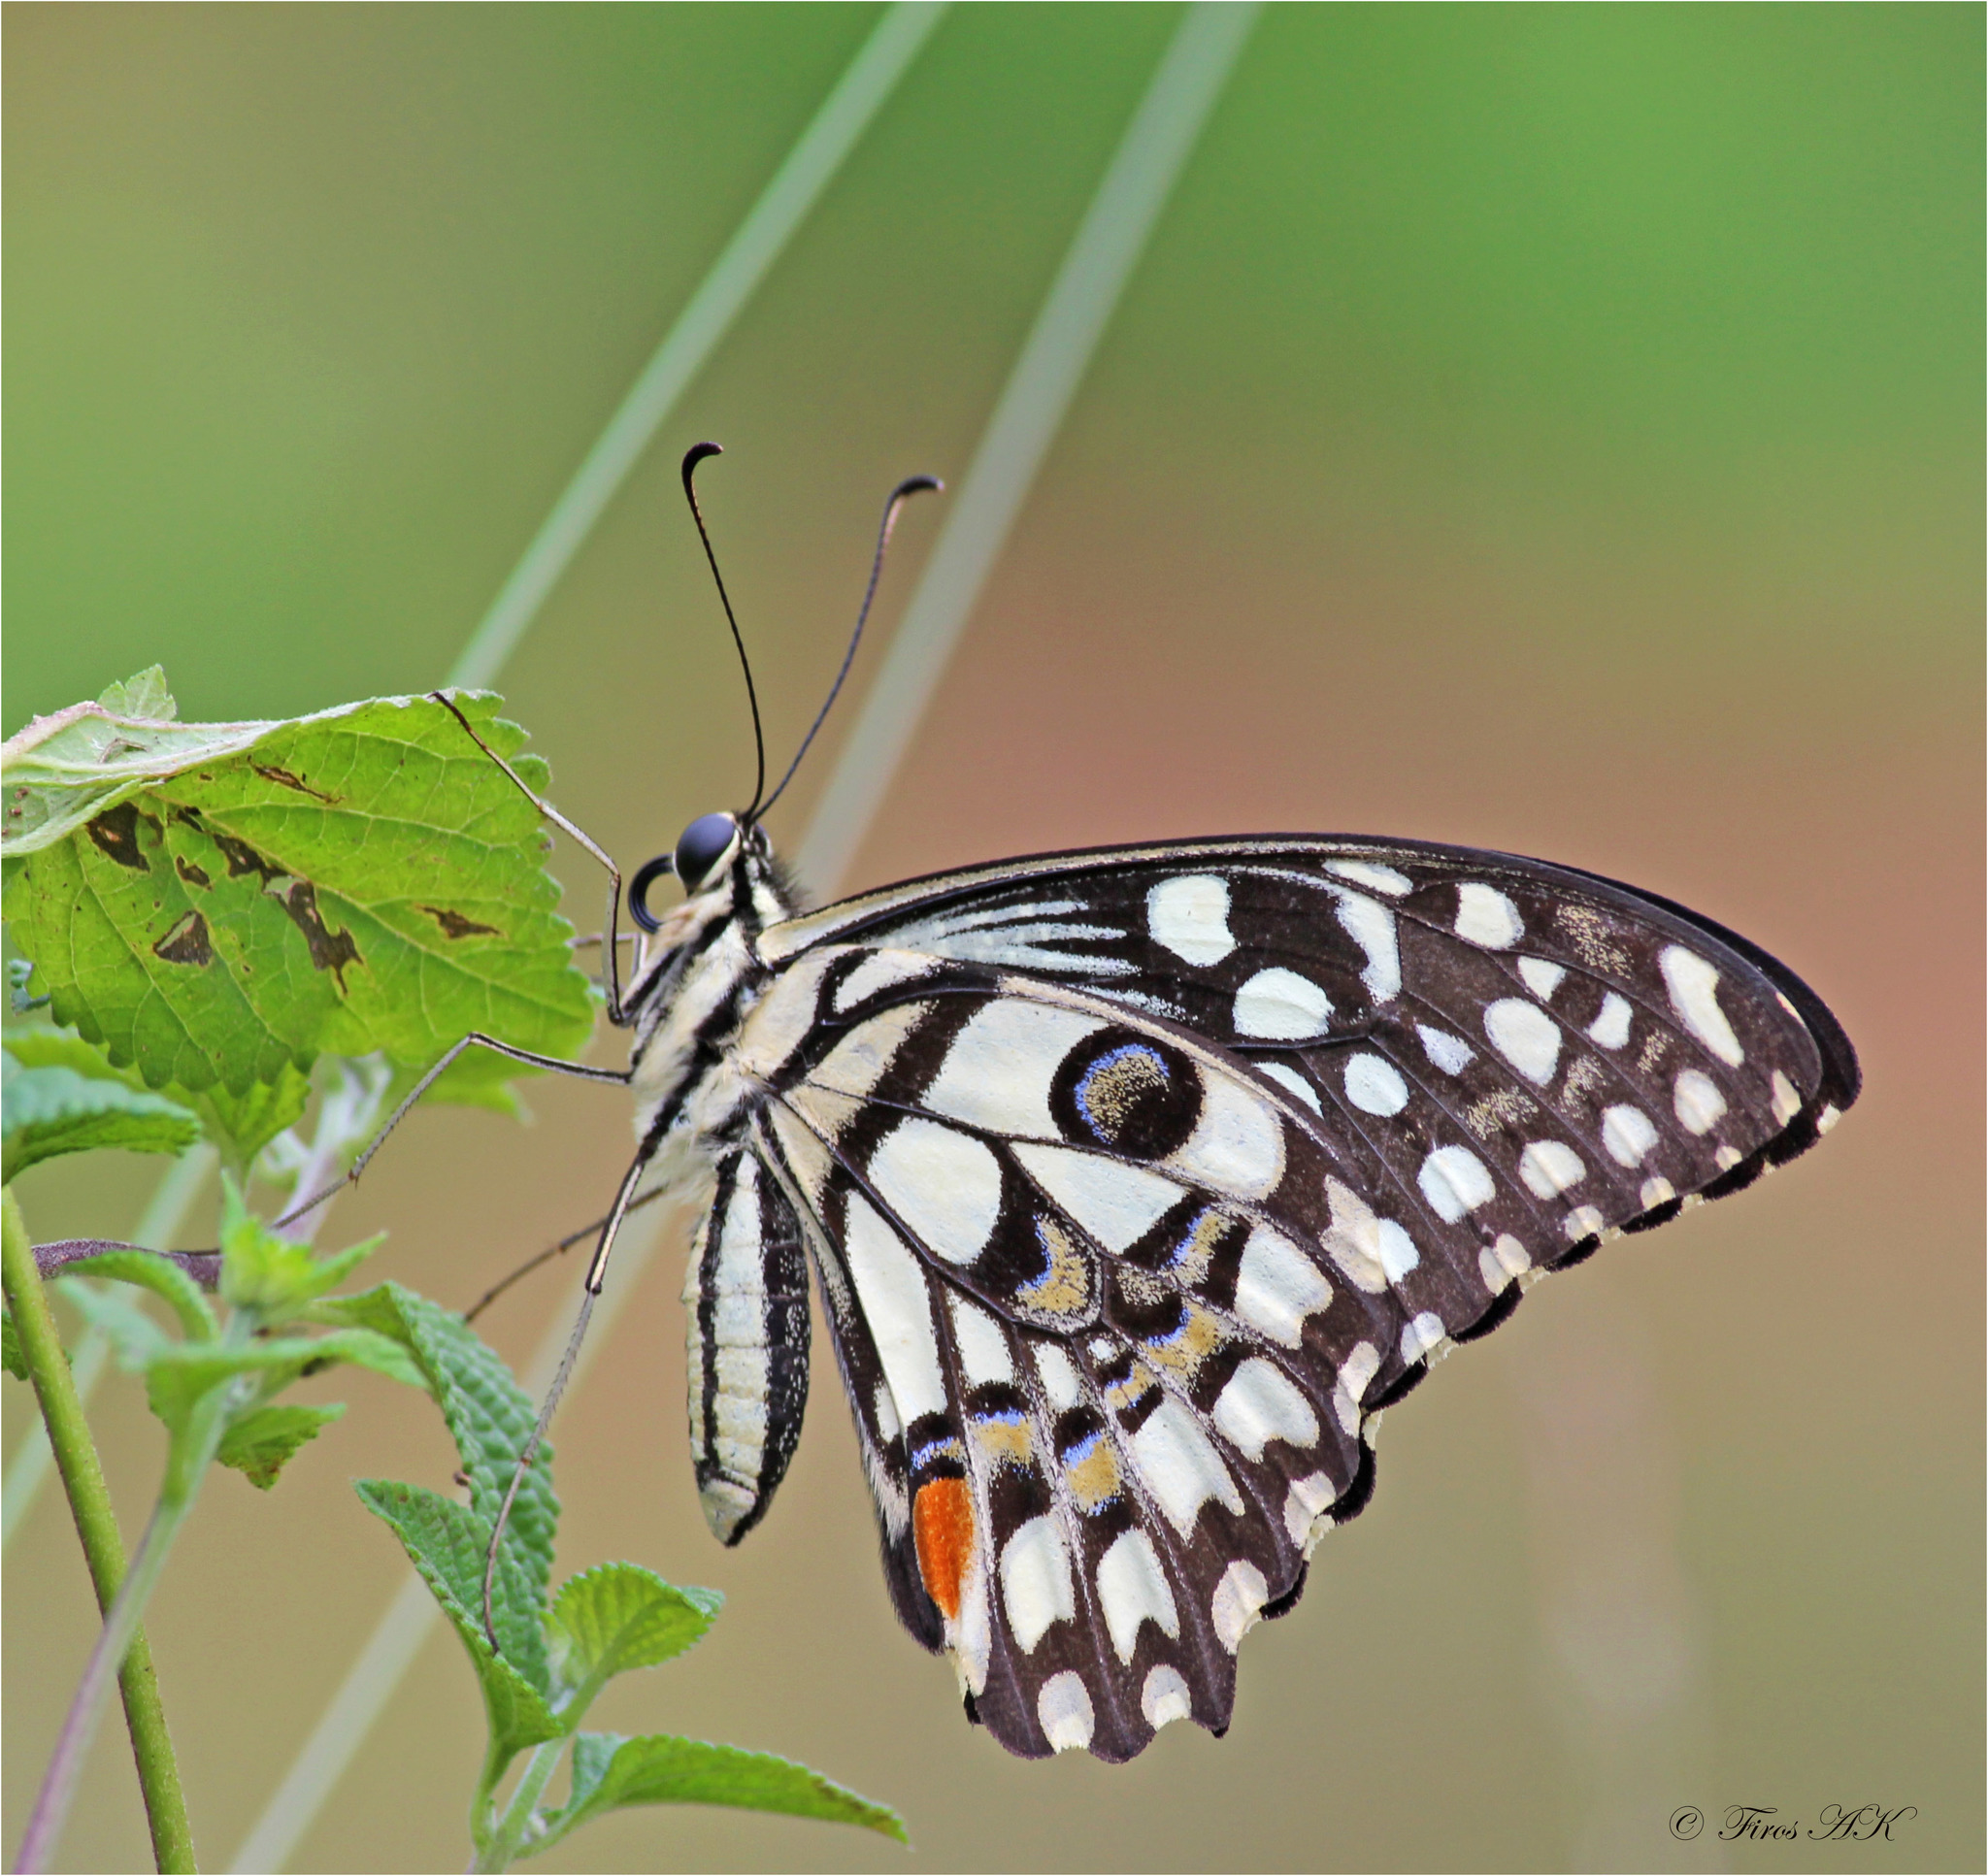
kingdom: Animalia
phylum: Arthropoda
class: Insecta
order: Lepidoptera
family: Papilionidae
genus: Papilio
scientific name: Papilio demoleus
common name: Lime butterfly
